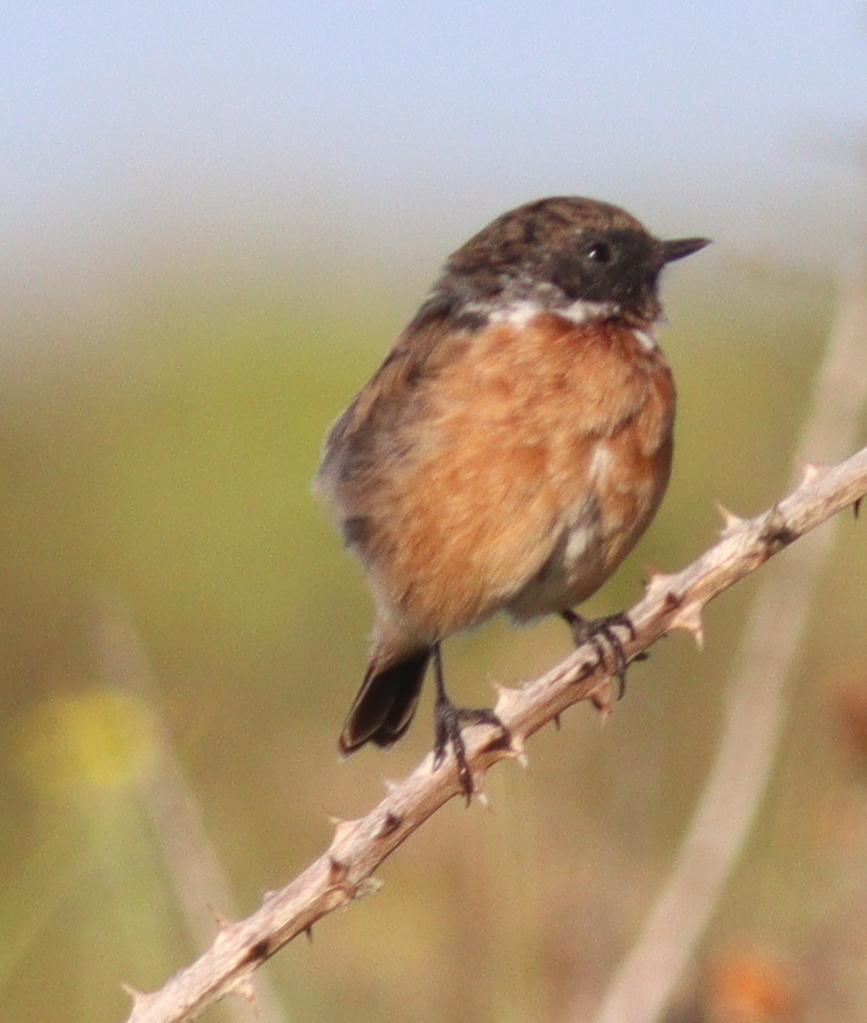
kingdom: Animalia
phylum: Chordata
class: Aves
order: Passeriformes
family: Muscicapidae
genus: Saxicola
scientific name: Saxicola rubicola
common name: European stonechat
